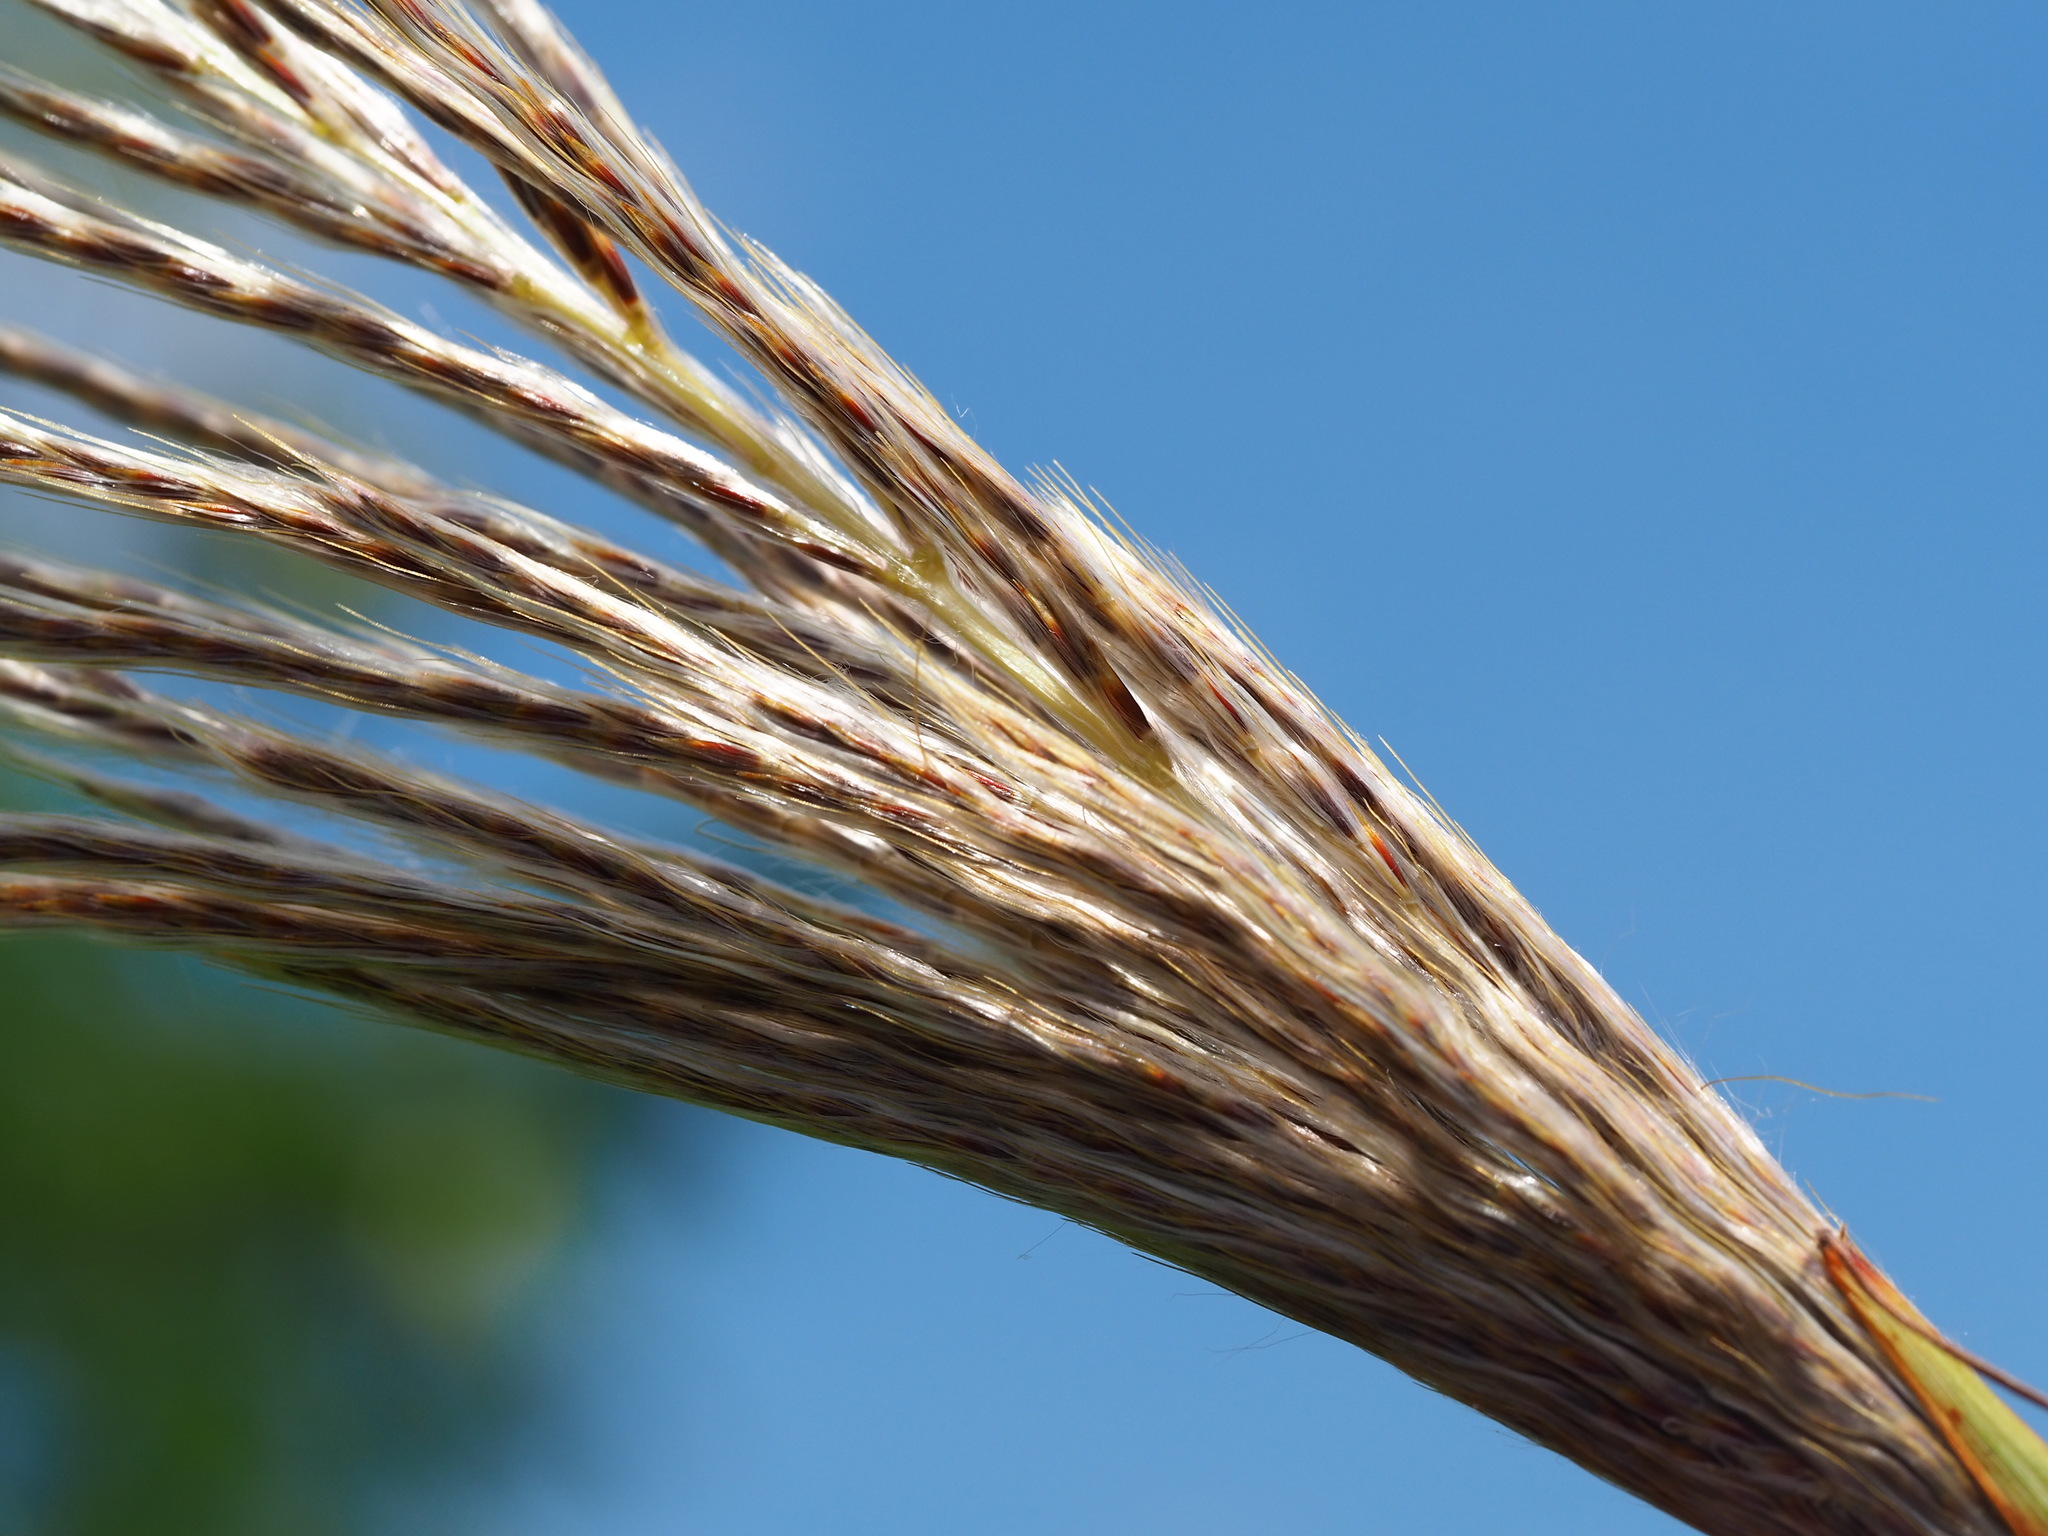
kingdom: Plantae
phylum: Tracheophyta
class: Liliopsida
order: Poales
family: Poaceae
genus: Saccharum
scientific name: Saccharum formosanum
